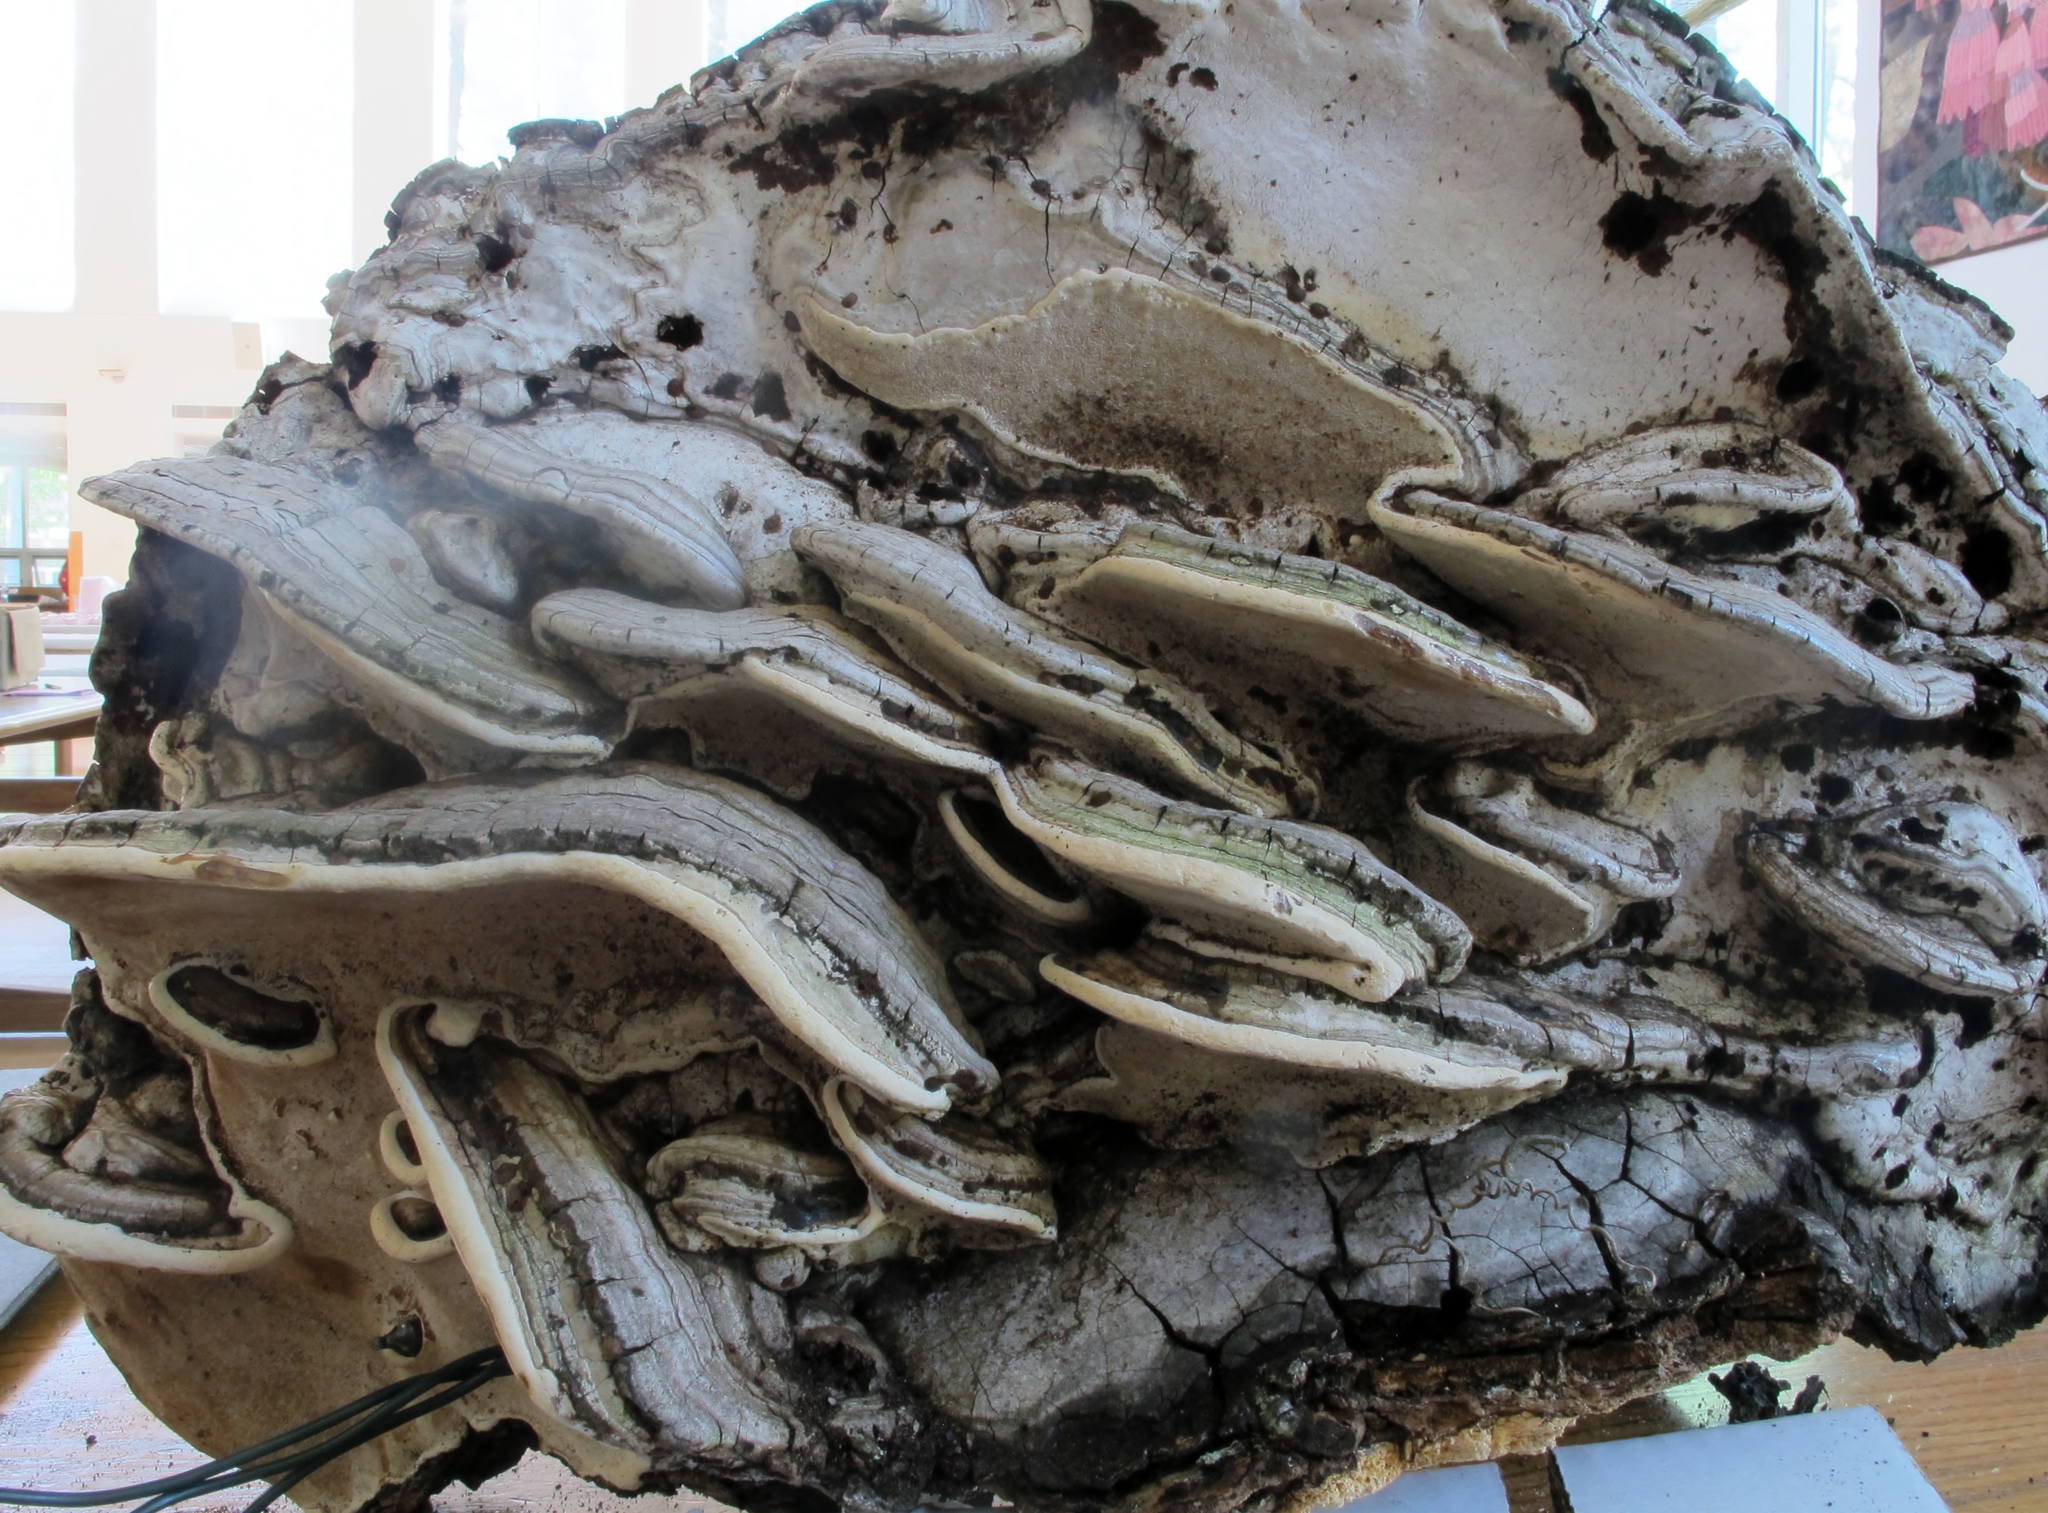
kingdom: Fungi
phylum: Basidiomycota
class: Agaricomycetes
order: Polyporales
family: Polyporaceae
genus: Ganoderma
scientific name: Ganoderma applanatum
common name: Artist's bracket
